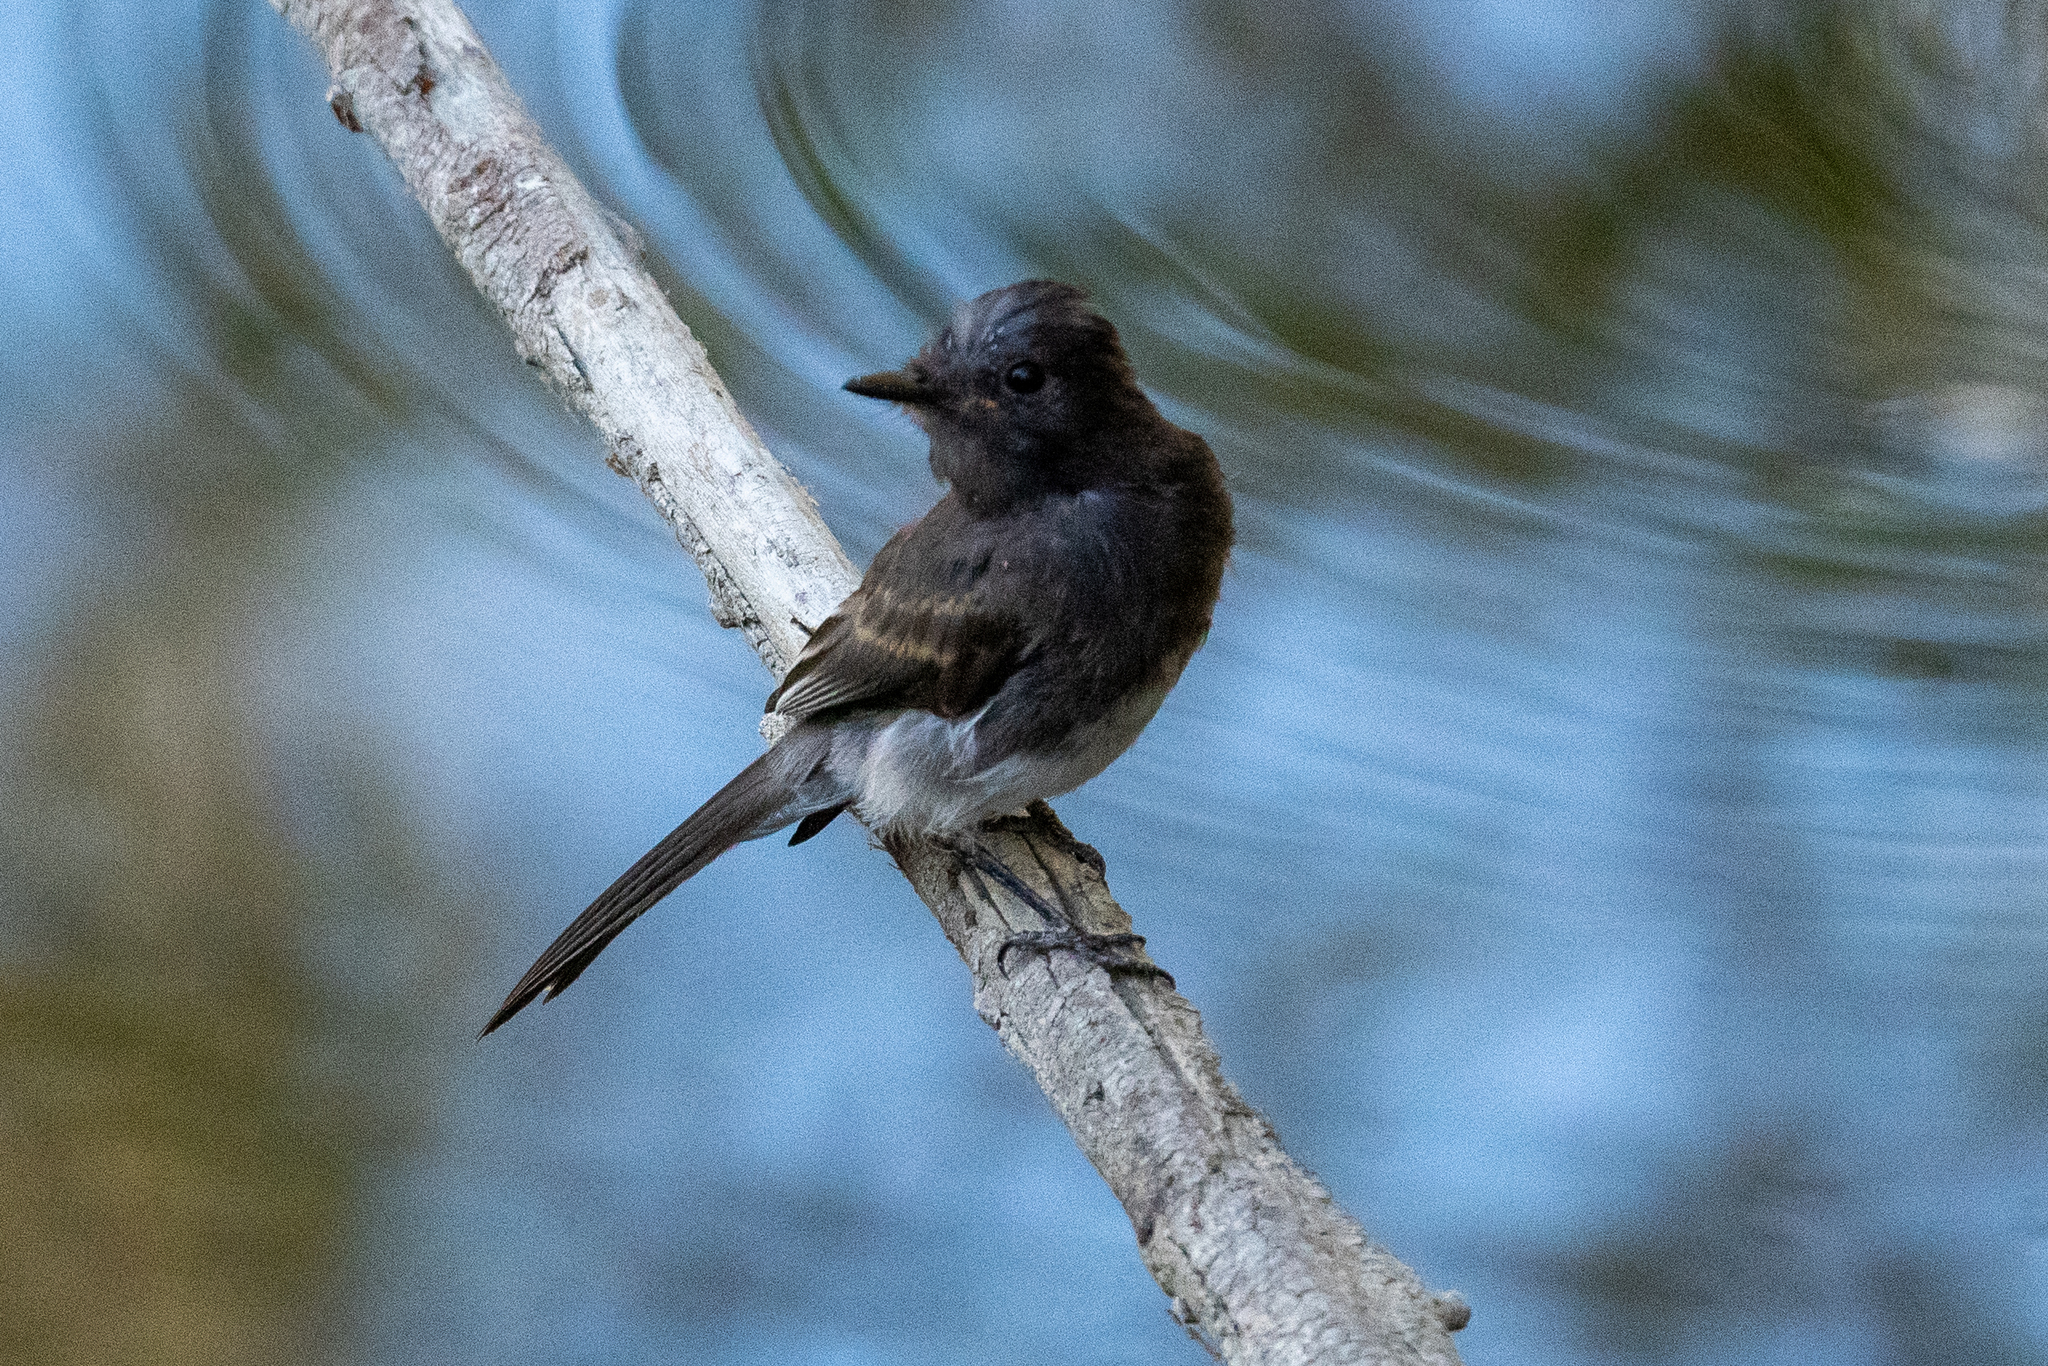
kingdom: Animalia
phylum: Chordata
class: Aves
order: Passeriformes
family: Tyrannidae
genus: Sayornis
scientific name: Sayornis nigricans
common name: Black phoebe
